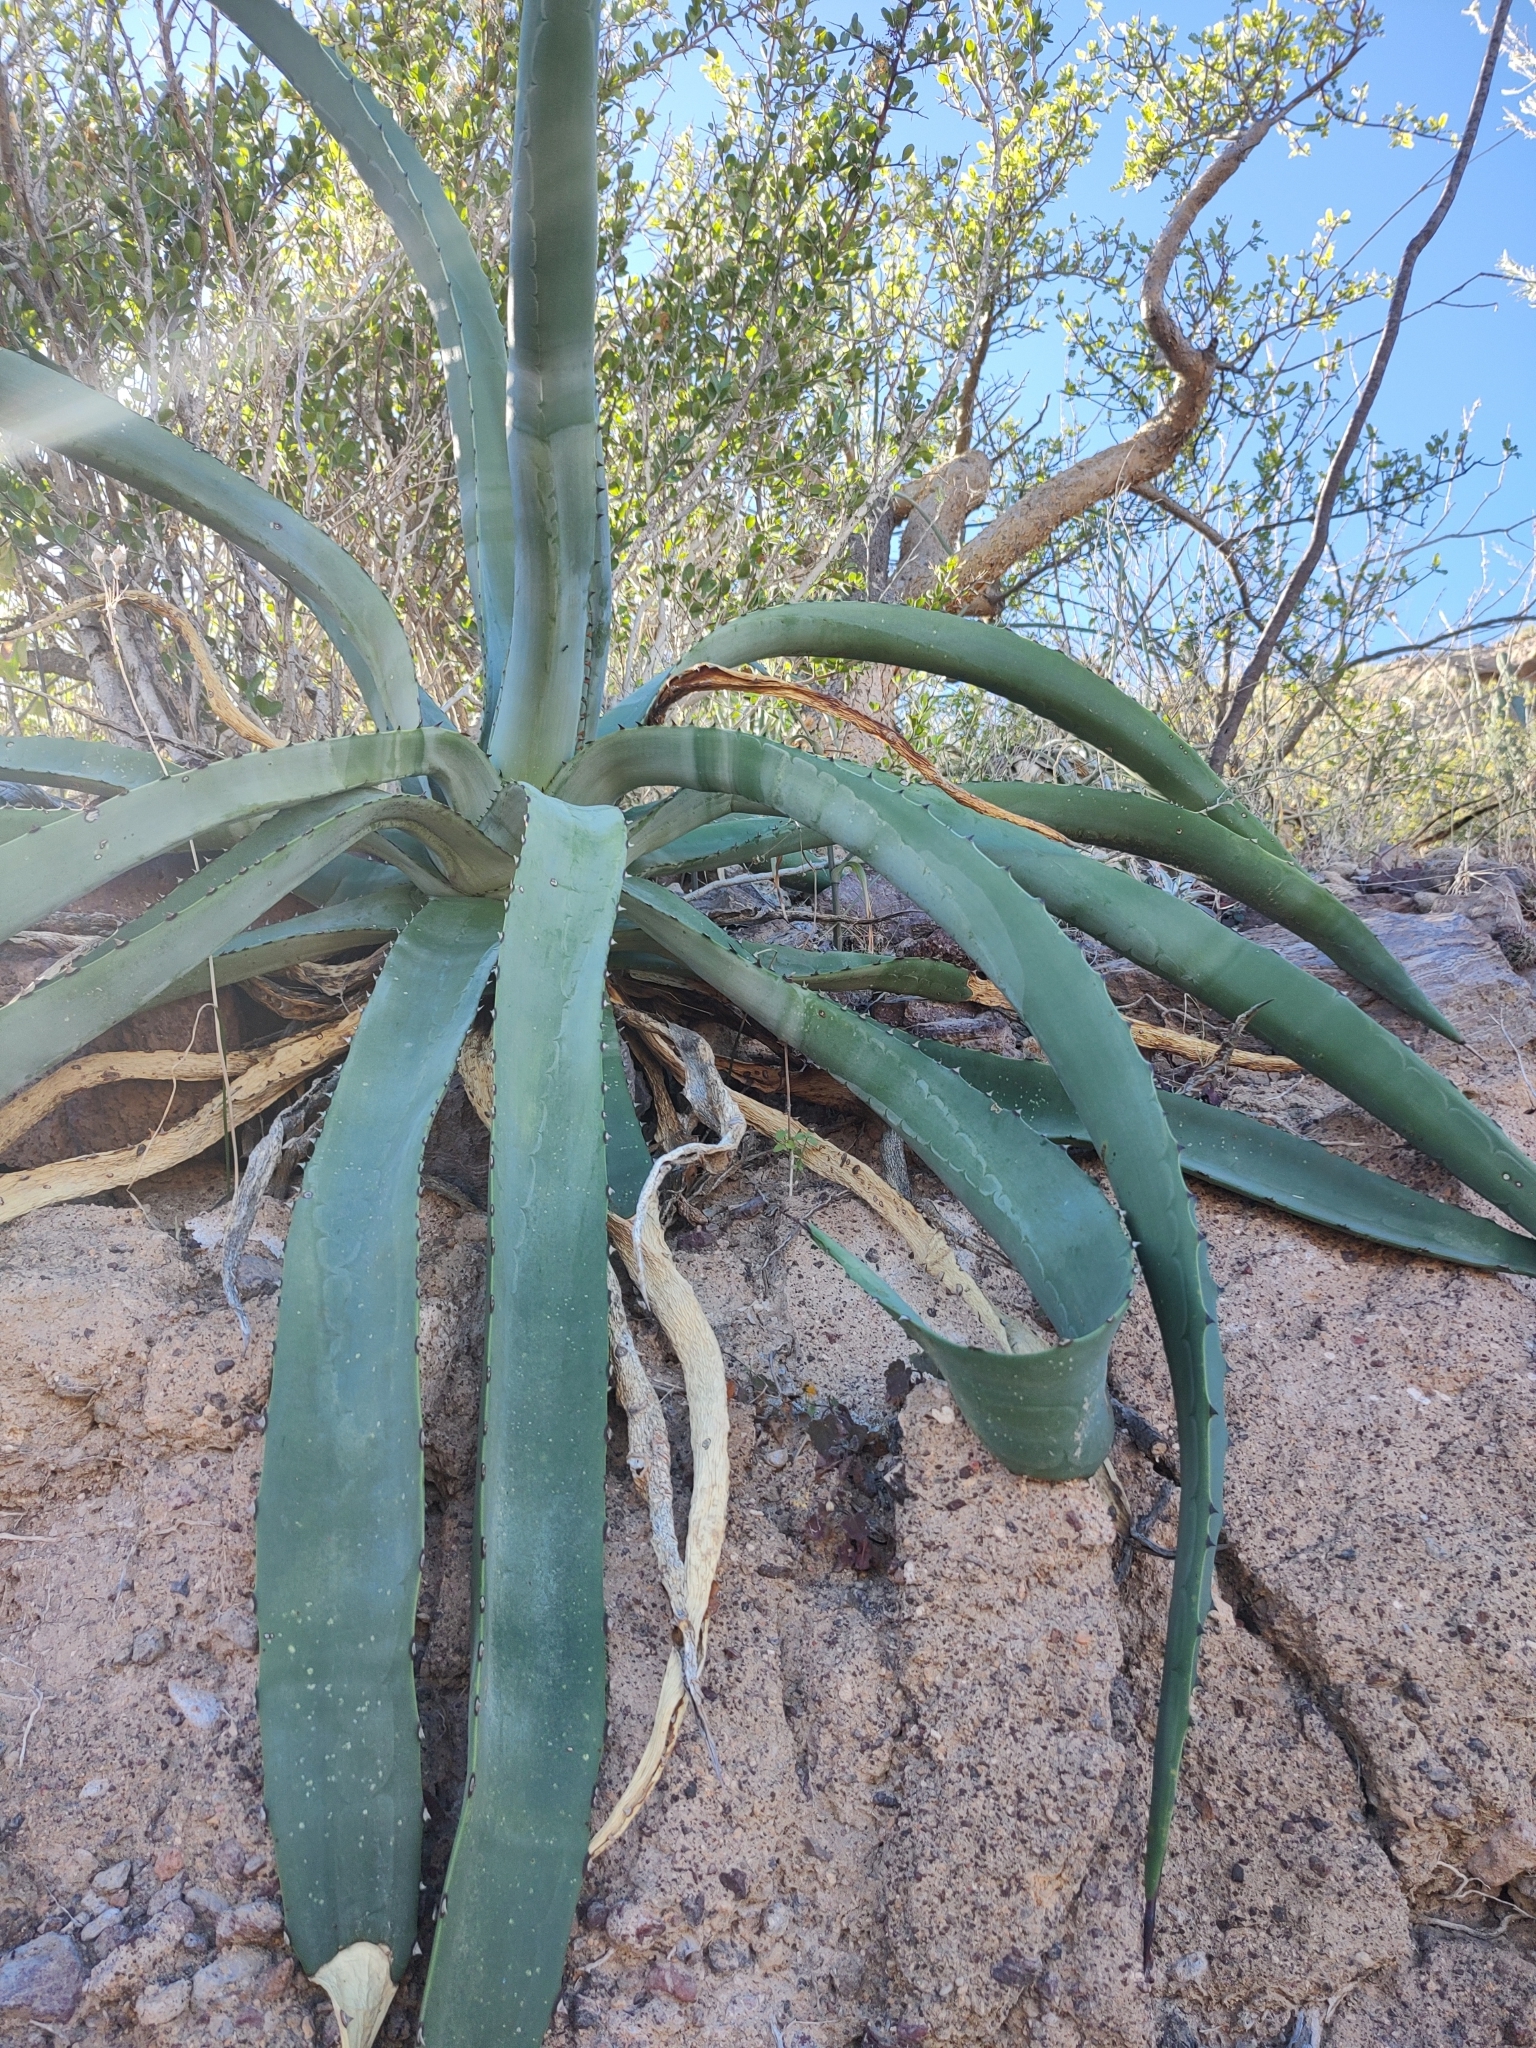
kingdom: Plantae
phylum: Tracheophyta
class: Liliopsida
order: Asparagales
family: Asparagaceae
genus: Agave
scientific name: Agave aurea
